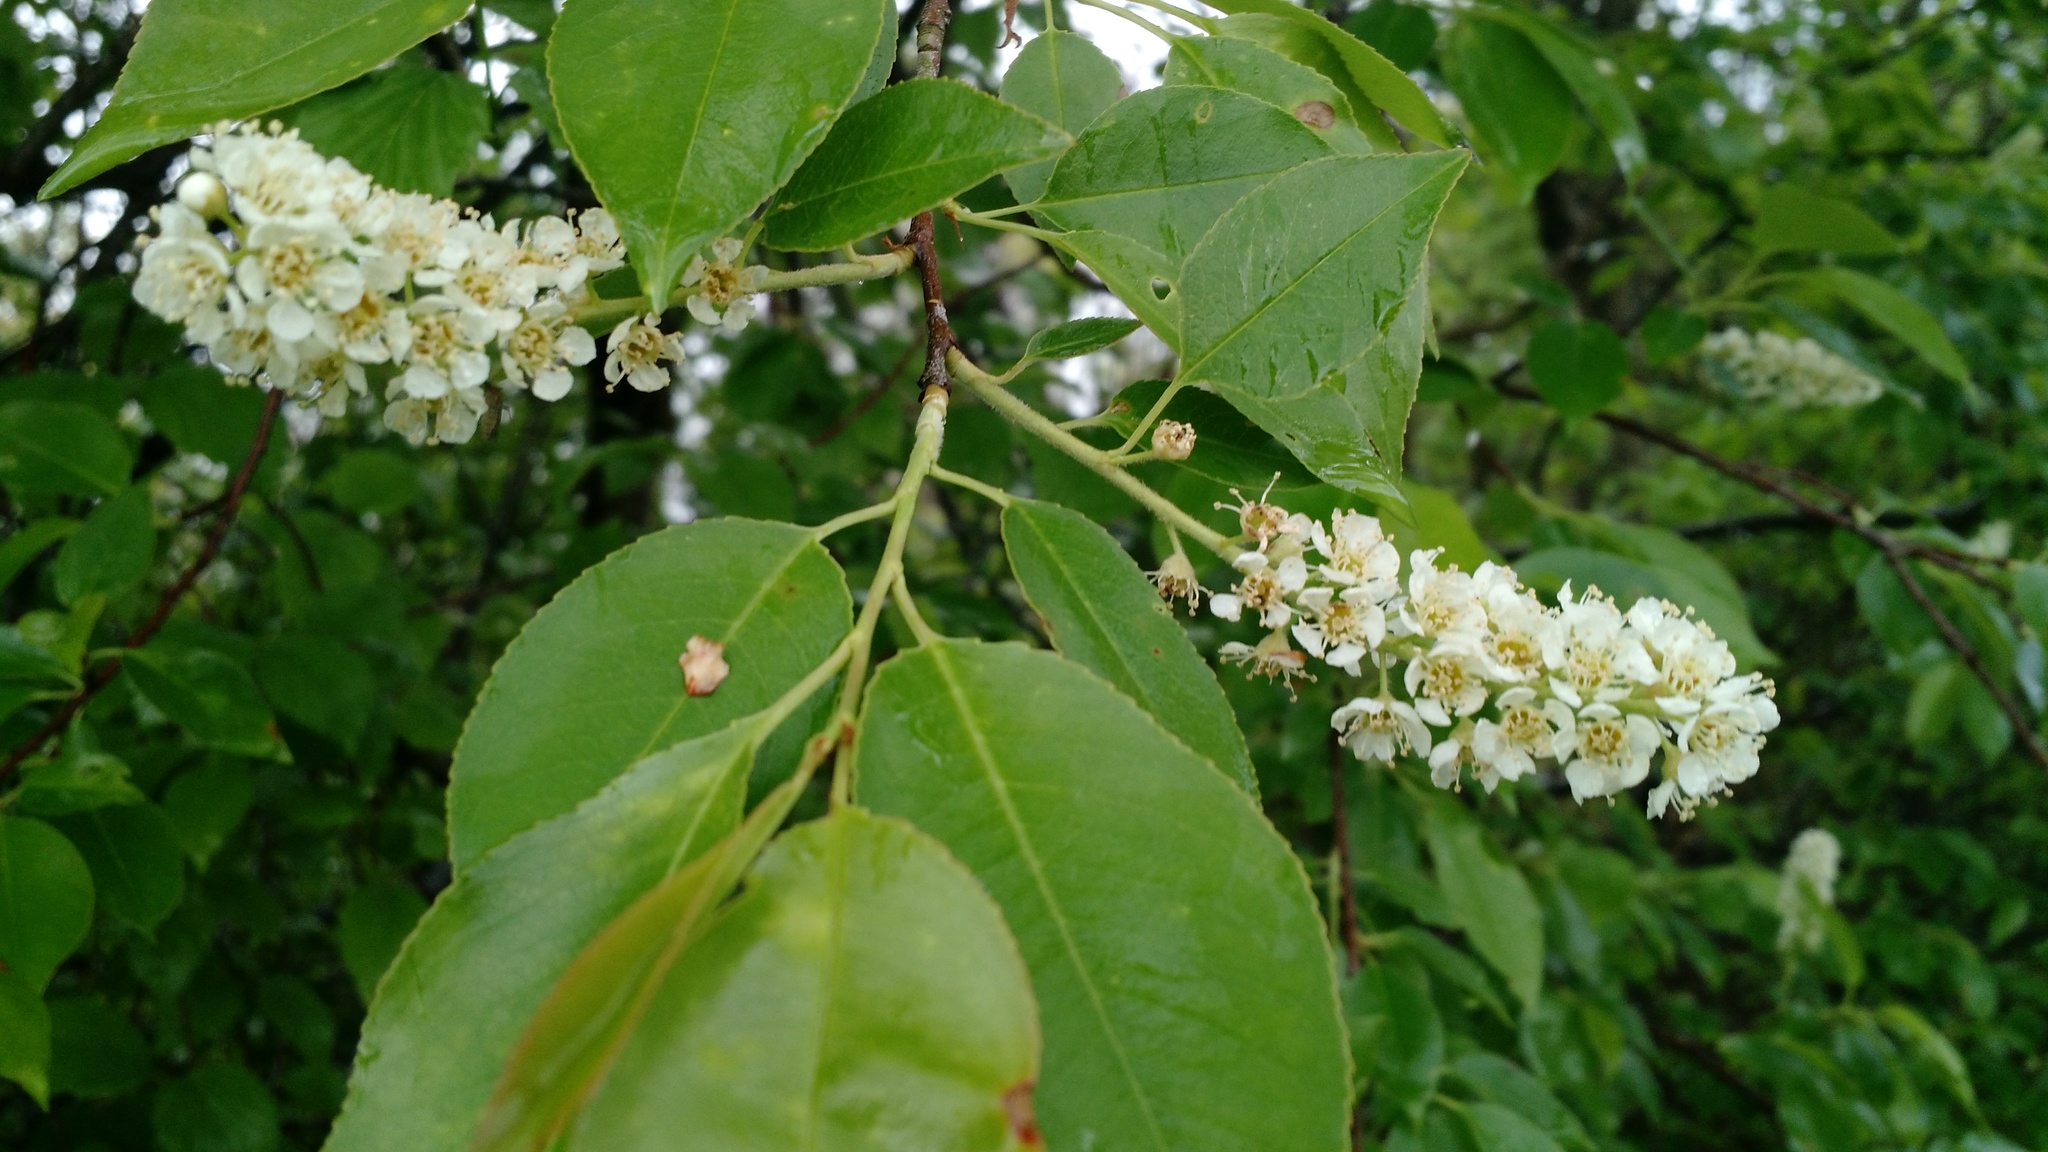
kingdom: Plantae
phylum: Tracheophyta
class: Magnoliopsida
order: Rosales
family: Rosaceae
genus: Prunus
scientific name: Prunus serotina
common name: Black cherry
